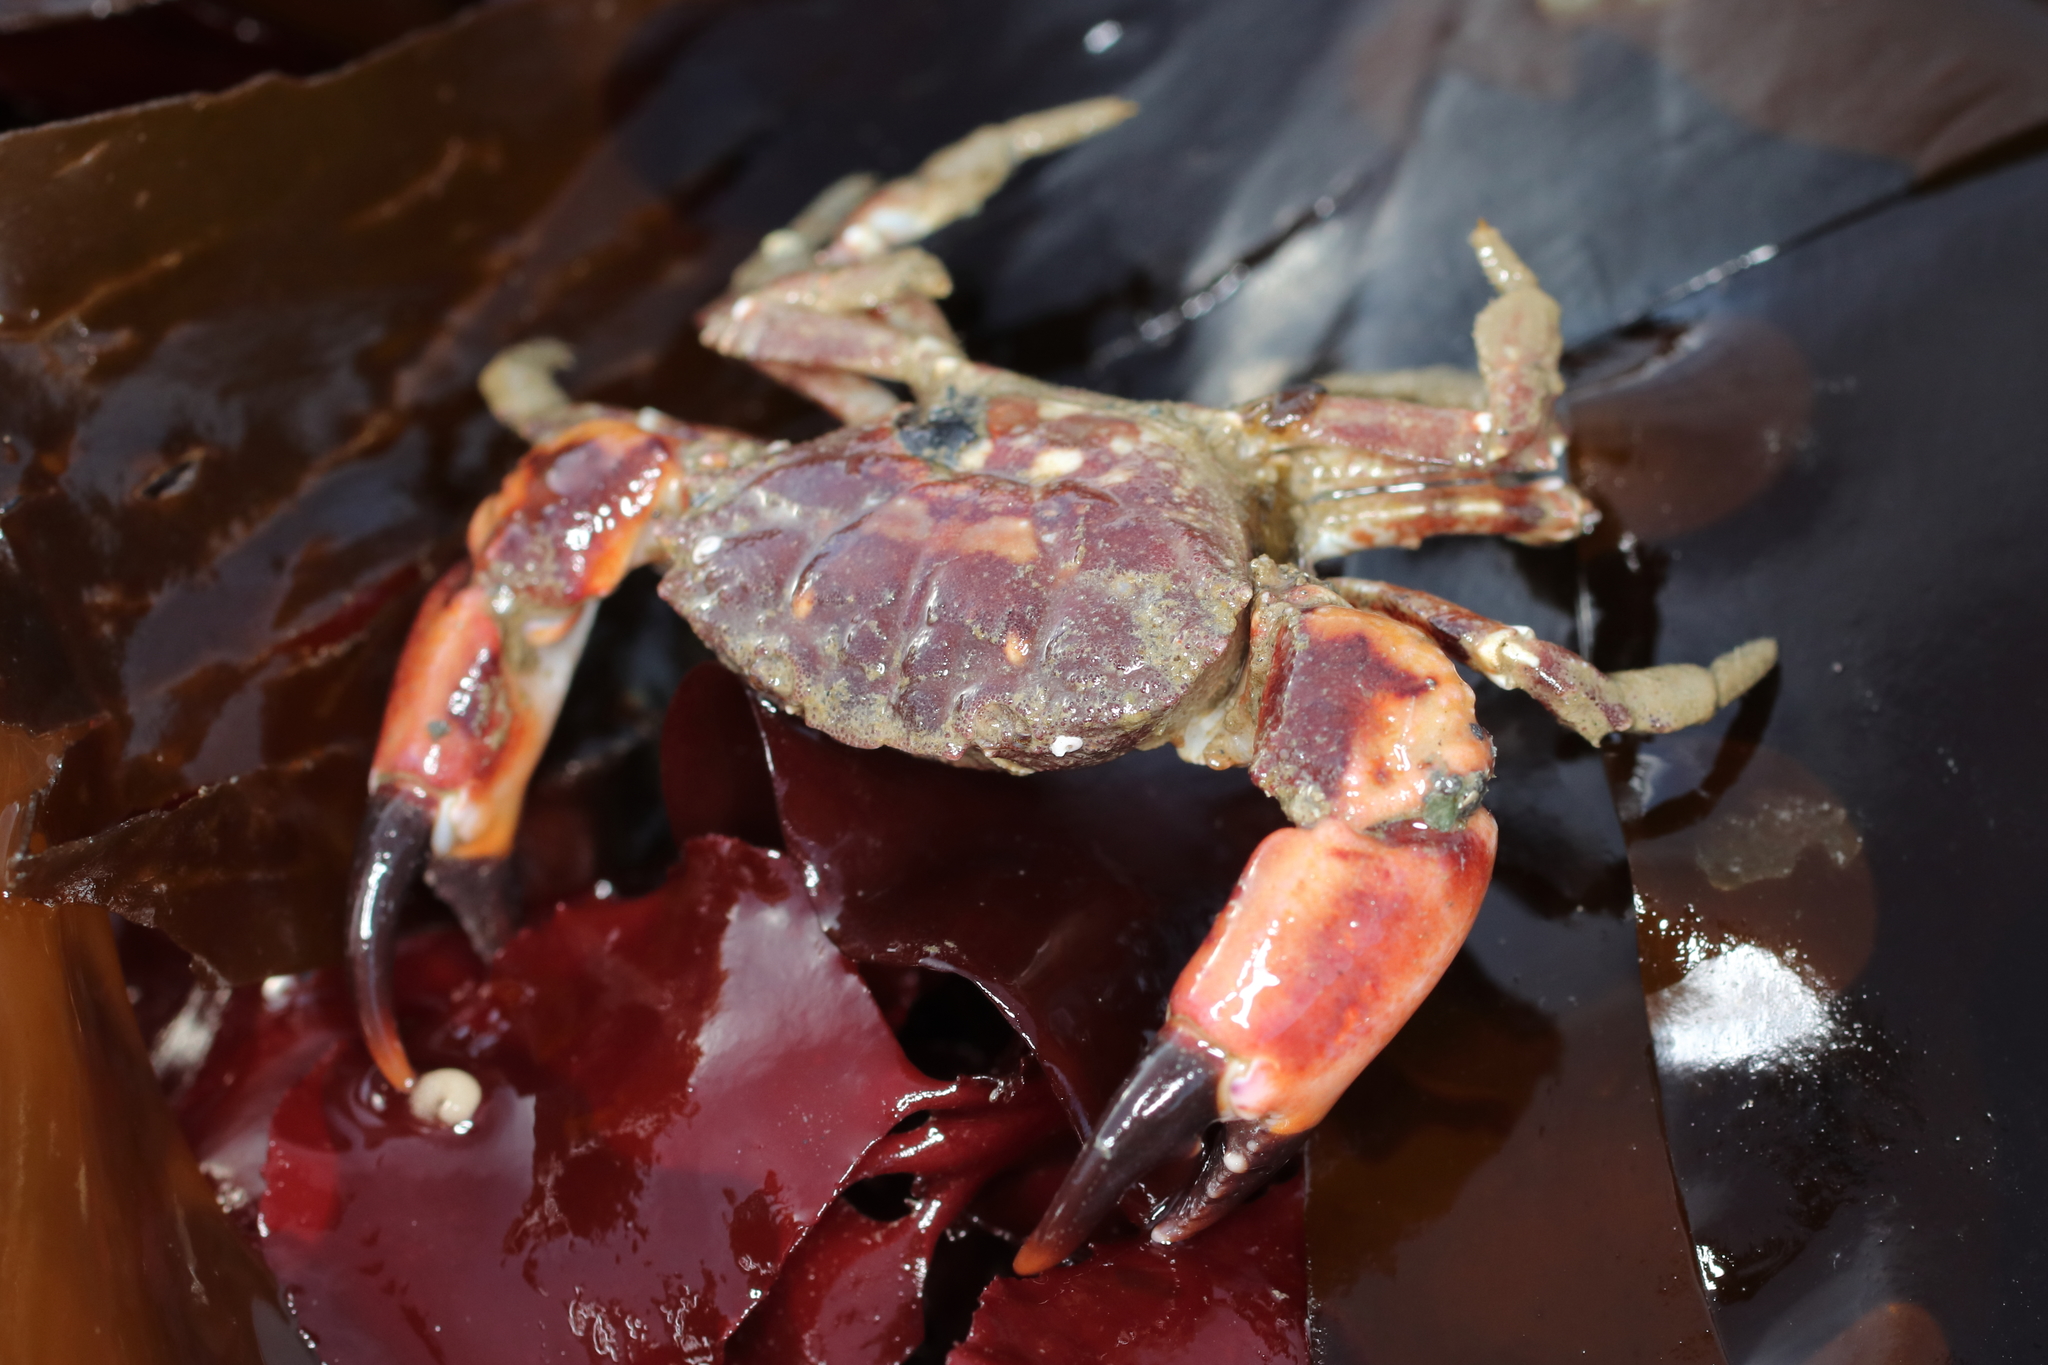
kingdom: Animalia
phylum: Arthropoda
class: Malacostraca
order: Decapoda
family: Panopeidae
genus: Lophopanopeus
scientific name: Lophopanopeus bellus
